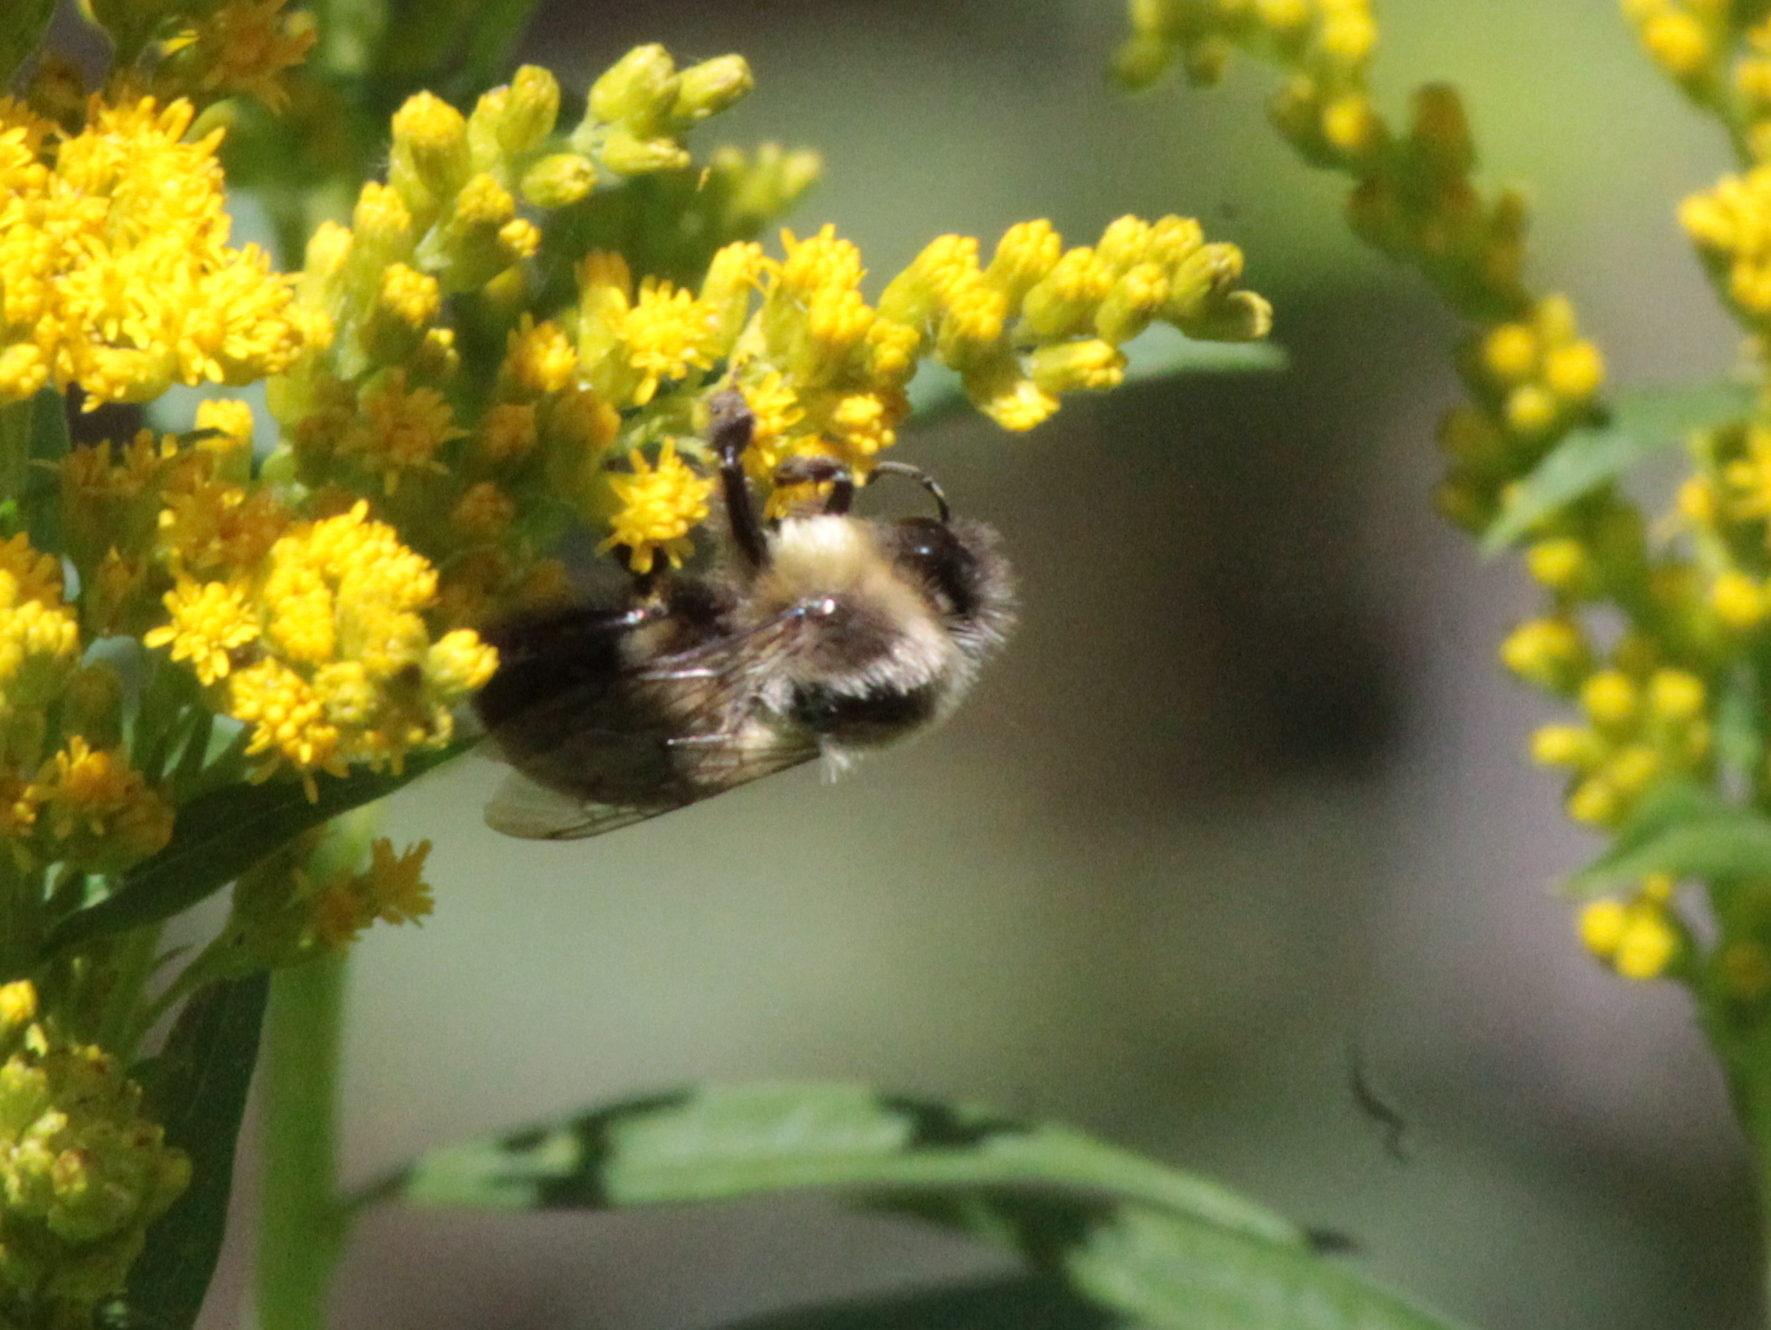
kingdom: Animalia
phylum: Arthropoda
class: Insecta
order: Hymenoptera
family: Apidae
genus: Bombus
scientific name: Bombus impatiens
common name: Common eastern bumble bee
